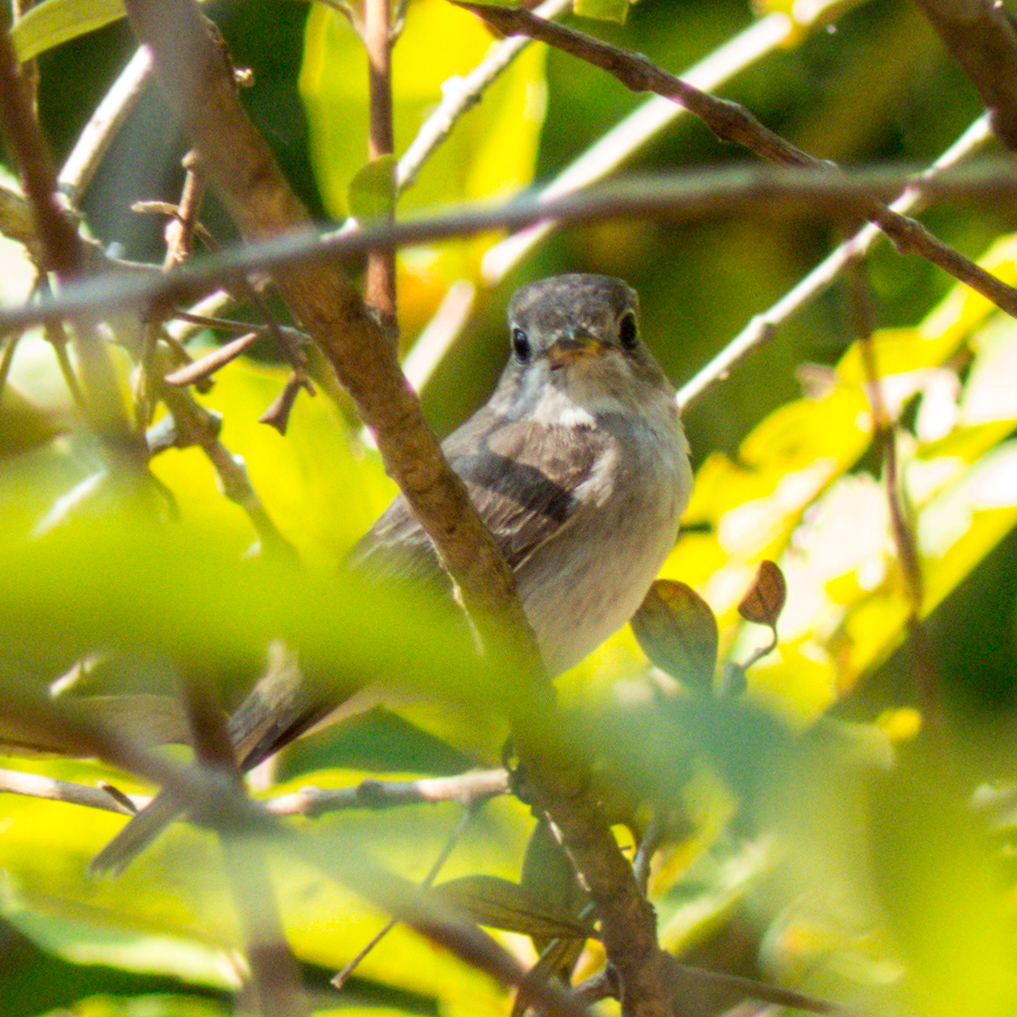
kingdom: Animalia
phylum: Chordata
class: Aves
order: Passeriformes
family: Muscicapidae
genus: Muscicapa
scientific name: Muscicapa latirostris
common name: Asian brown flycatcher
